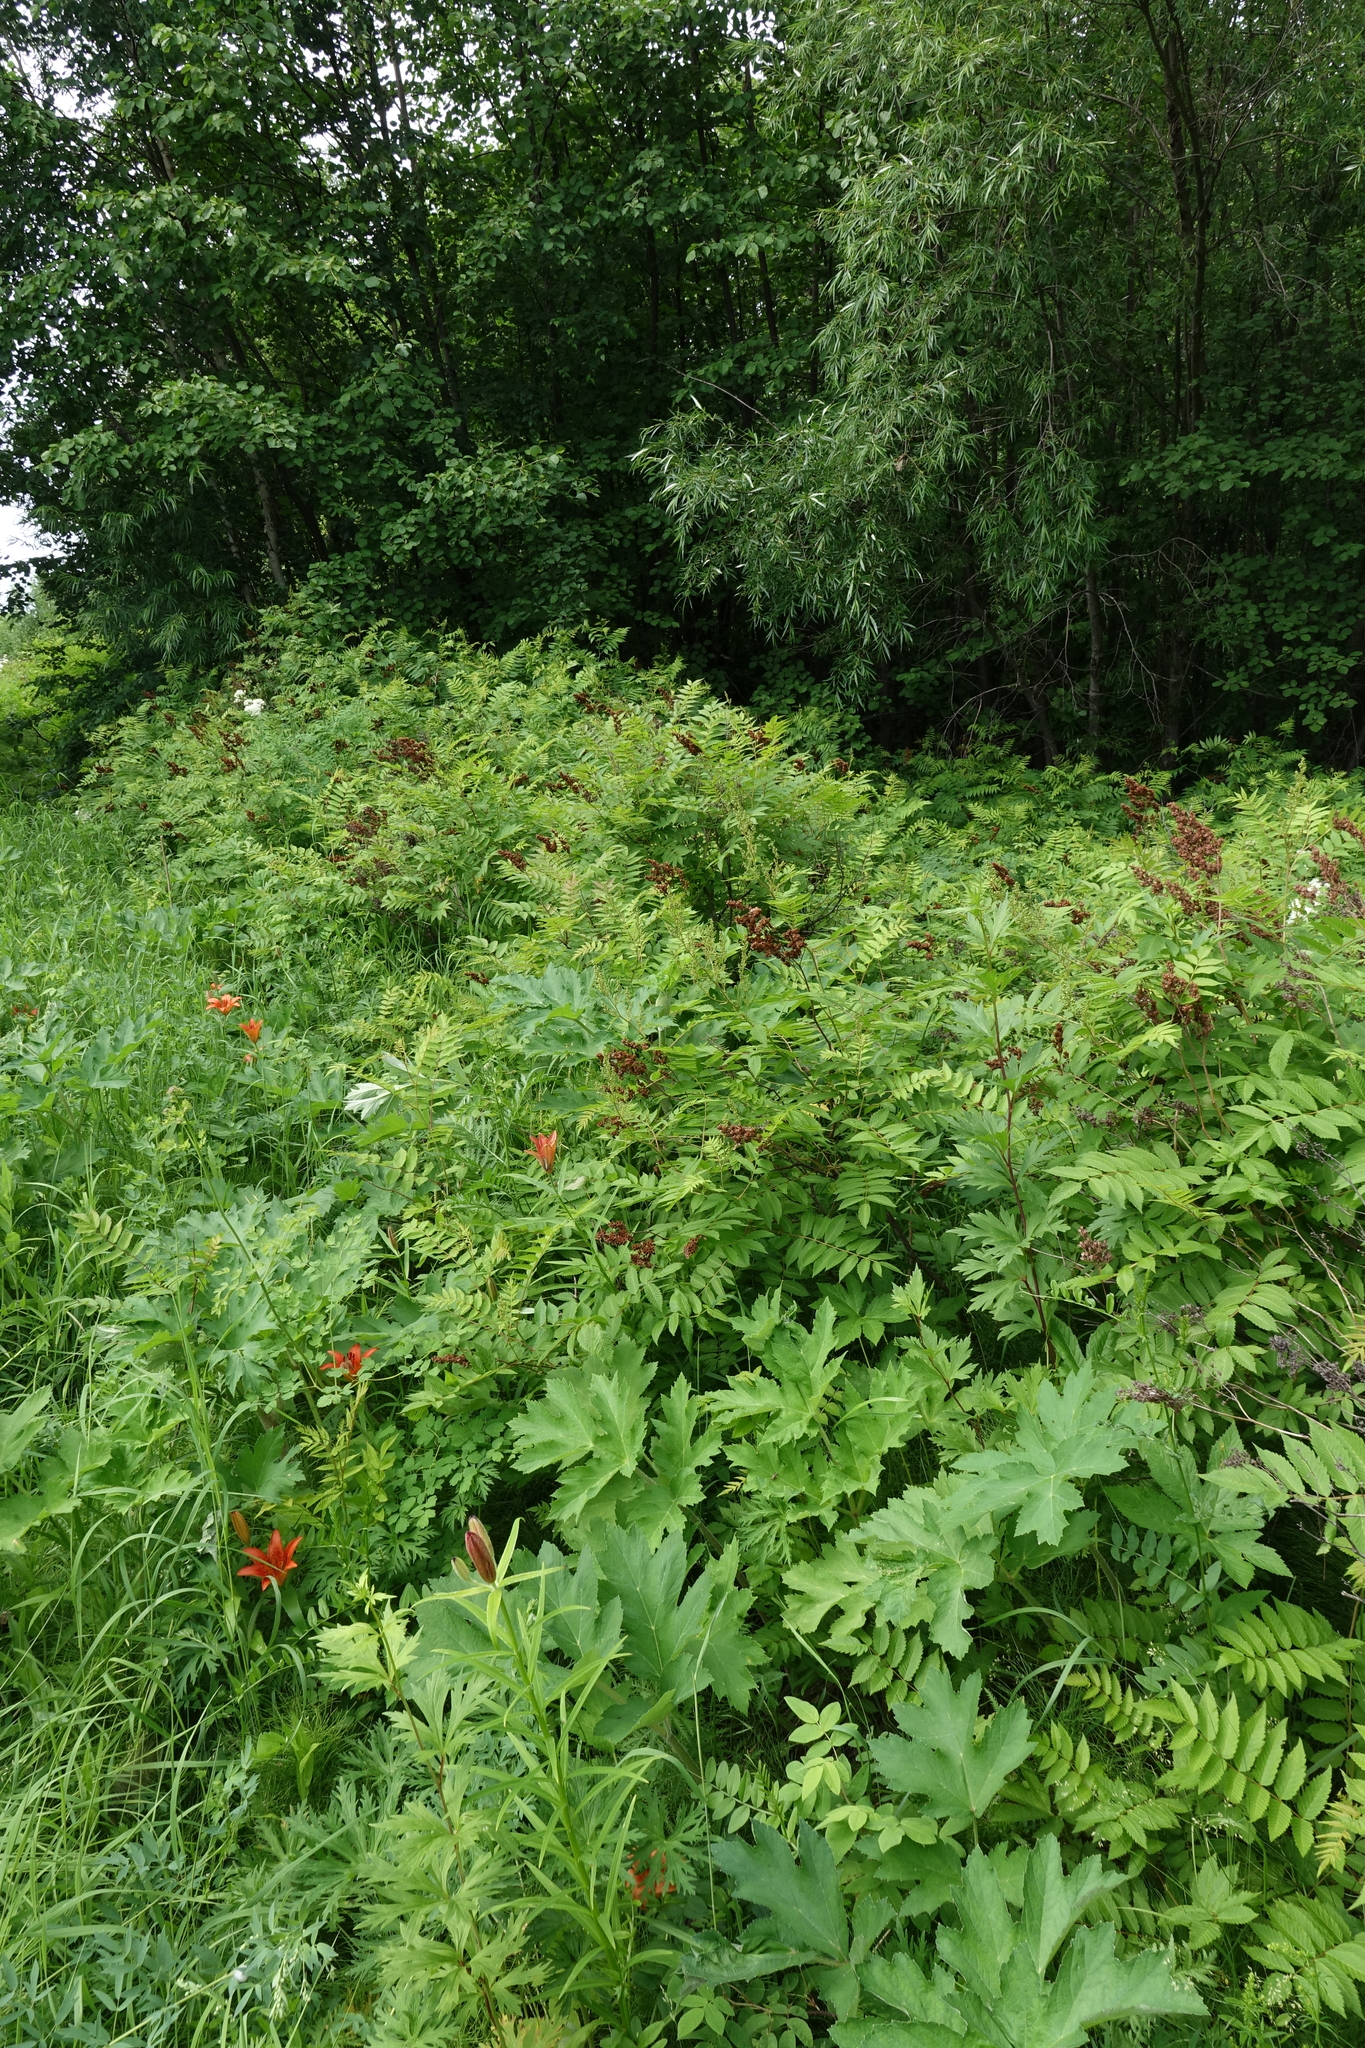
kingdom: Plantae
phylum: Tracheophyta
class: Magnoliopsida
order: Rosales
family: Rosaceae
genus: Sorbaria
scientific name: Sorbaria sorbifolia
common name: False spiraea
